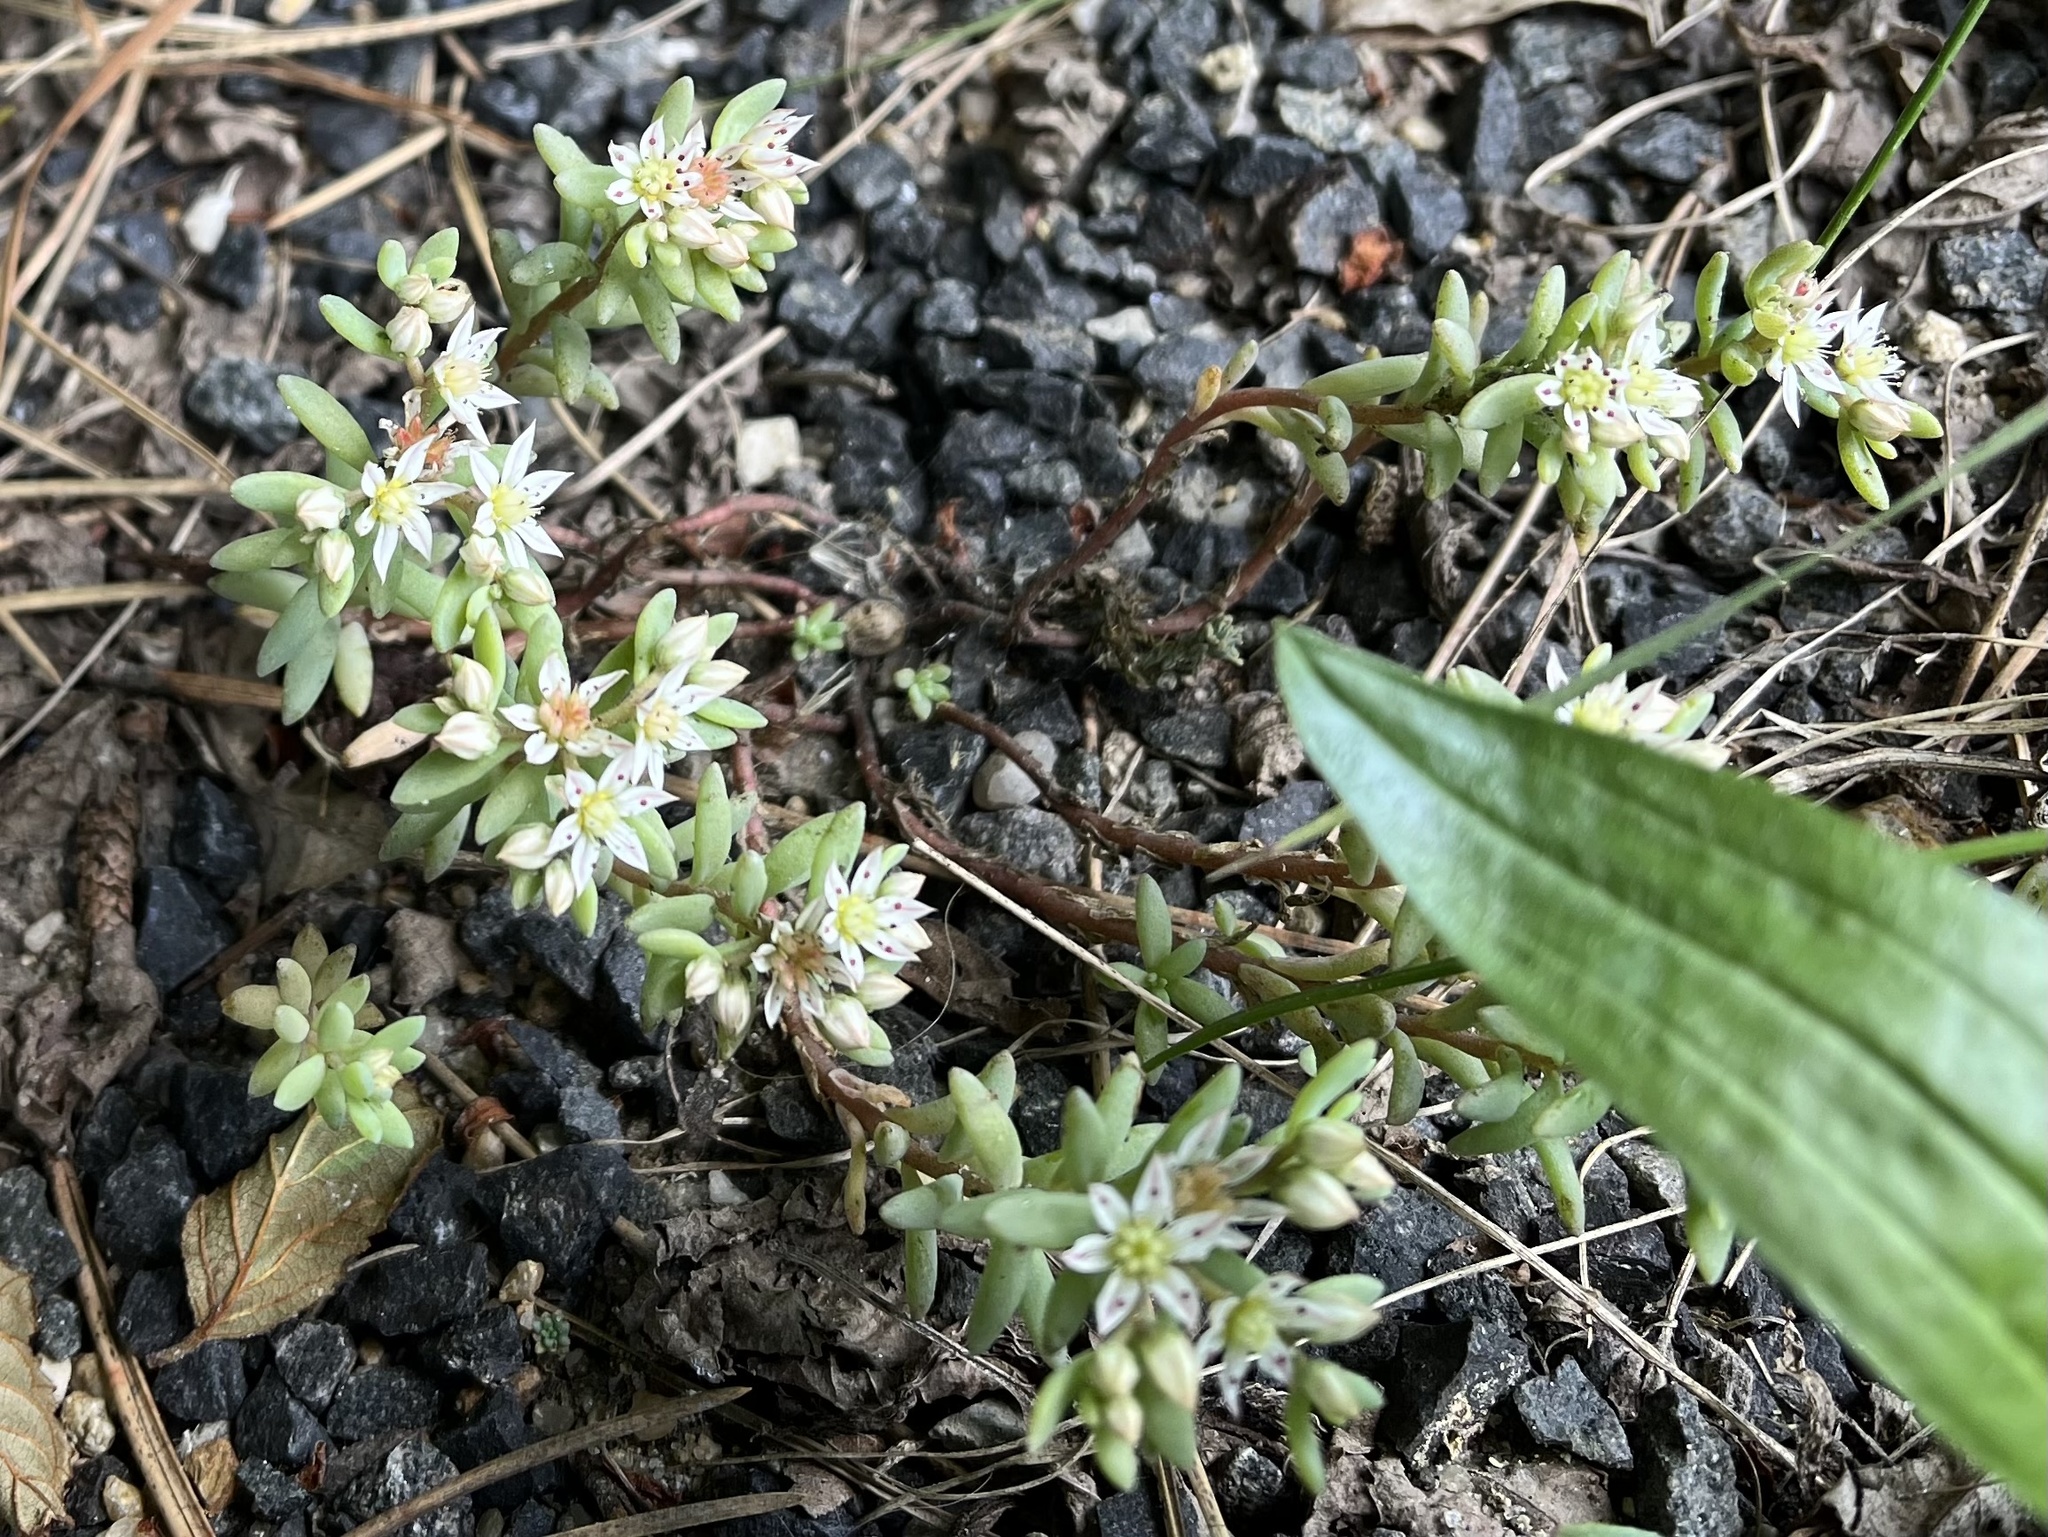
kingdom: Plantae
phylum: Tracheophyta
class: Magnoliopsida
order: Saxifragales
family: Crassulaceae
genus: Sedum
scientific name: Sedum hispanicum
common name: Spanish stonecrop
